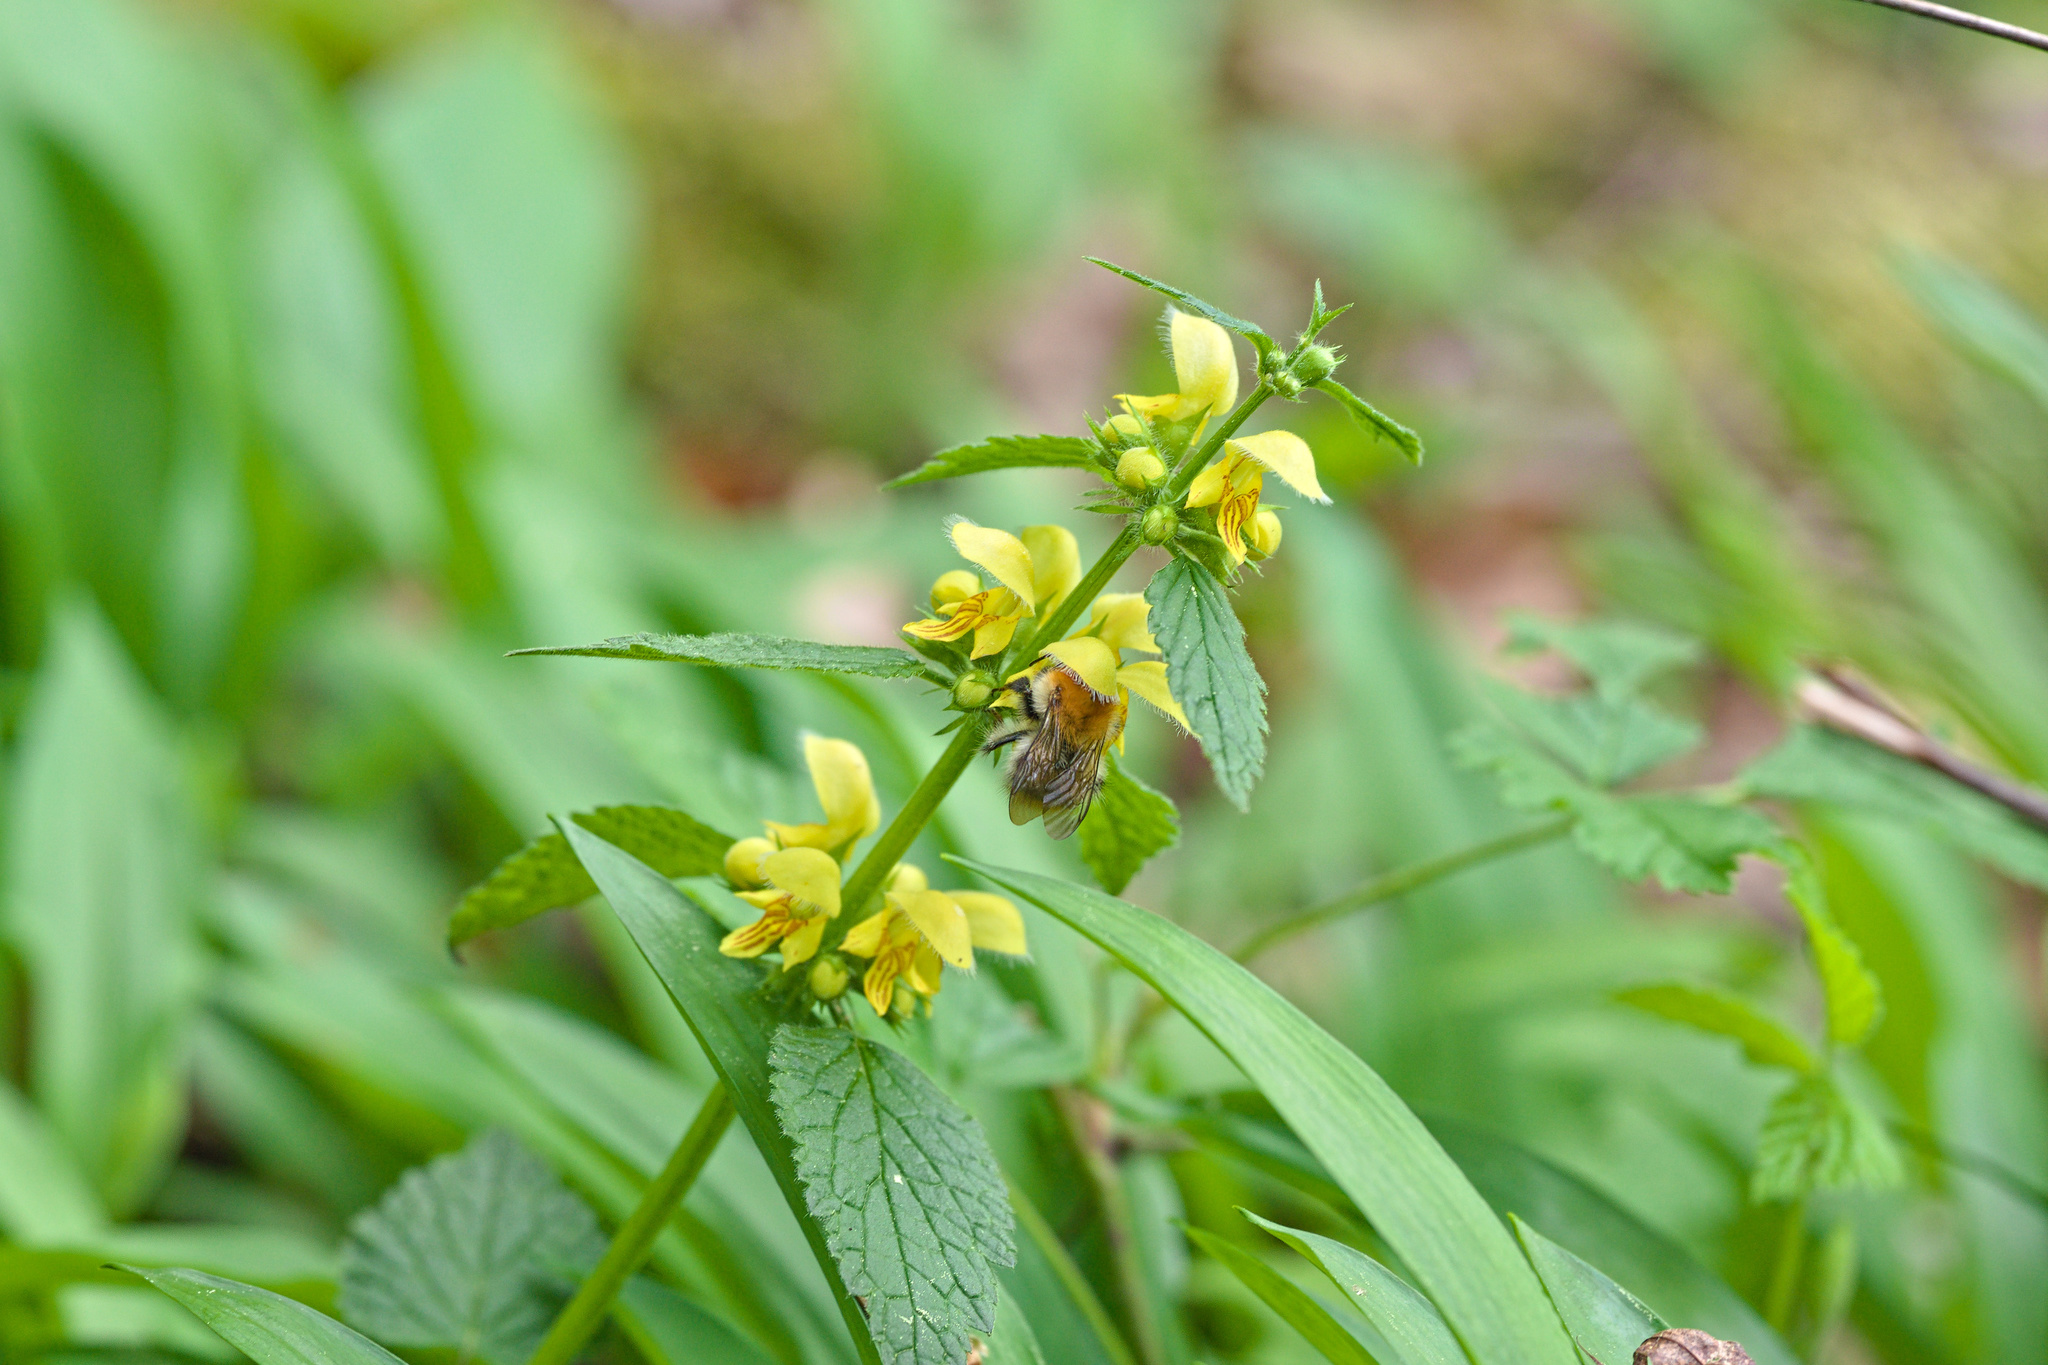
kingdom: Animalia
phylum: Arthropoda
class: Insecta
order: Hymenoptera
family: Apidae
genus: Bombus
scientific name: Bombus pascuorum
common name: Common carder bee
